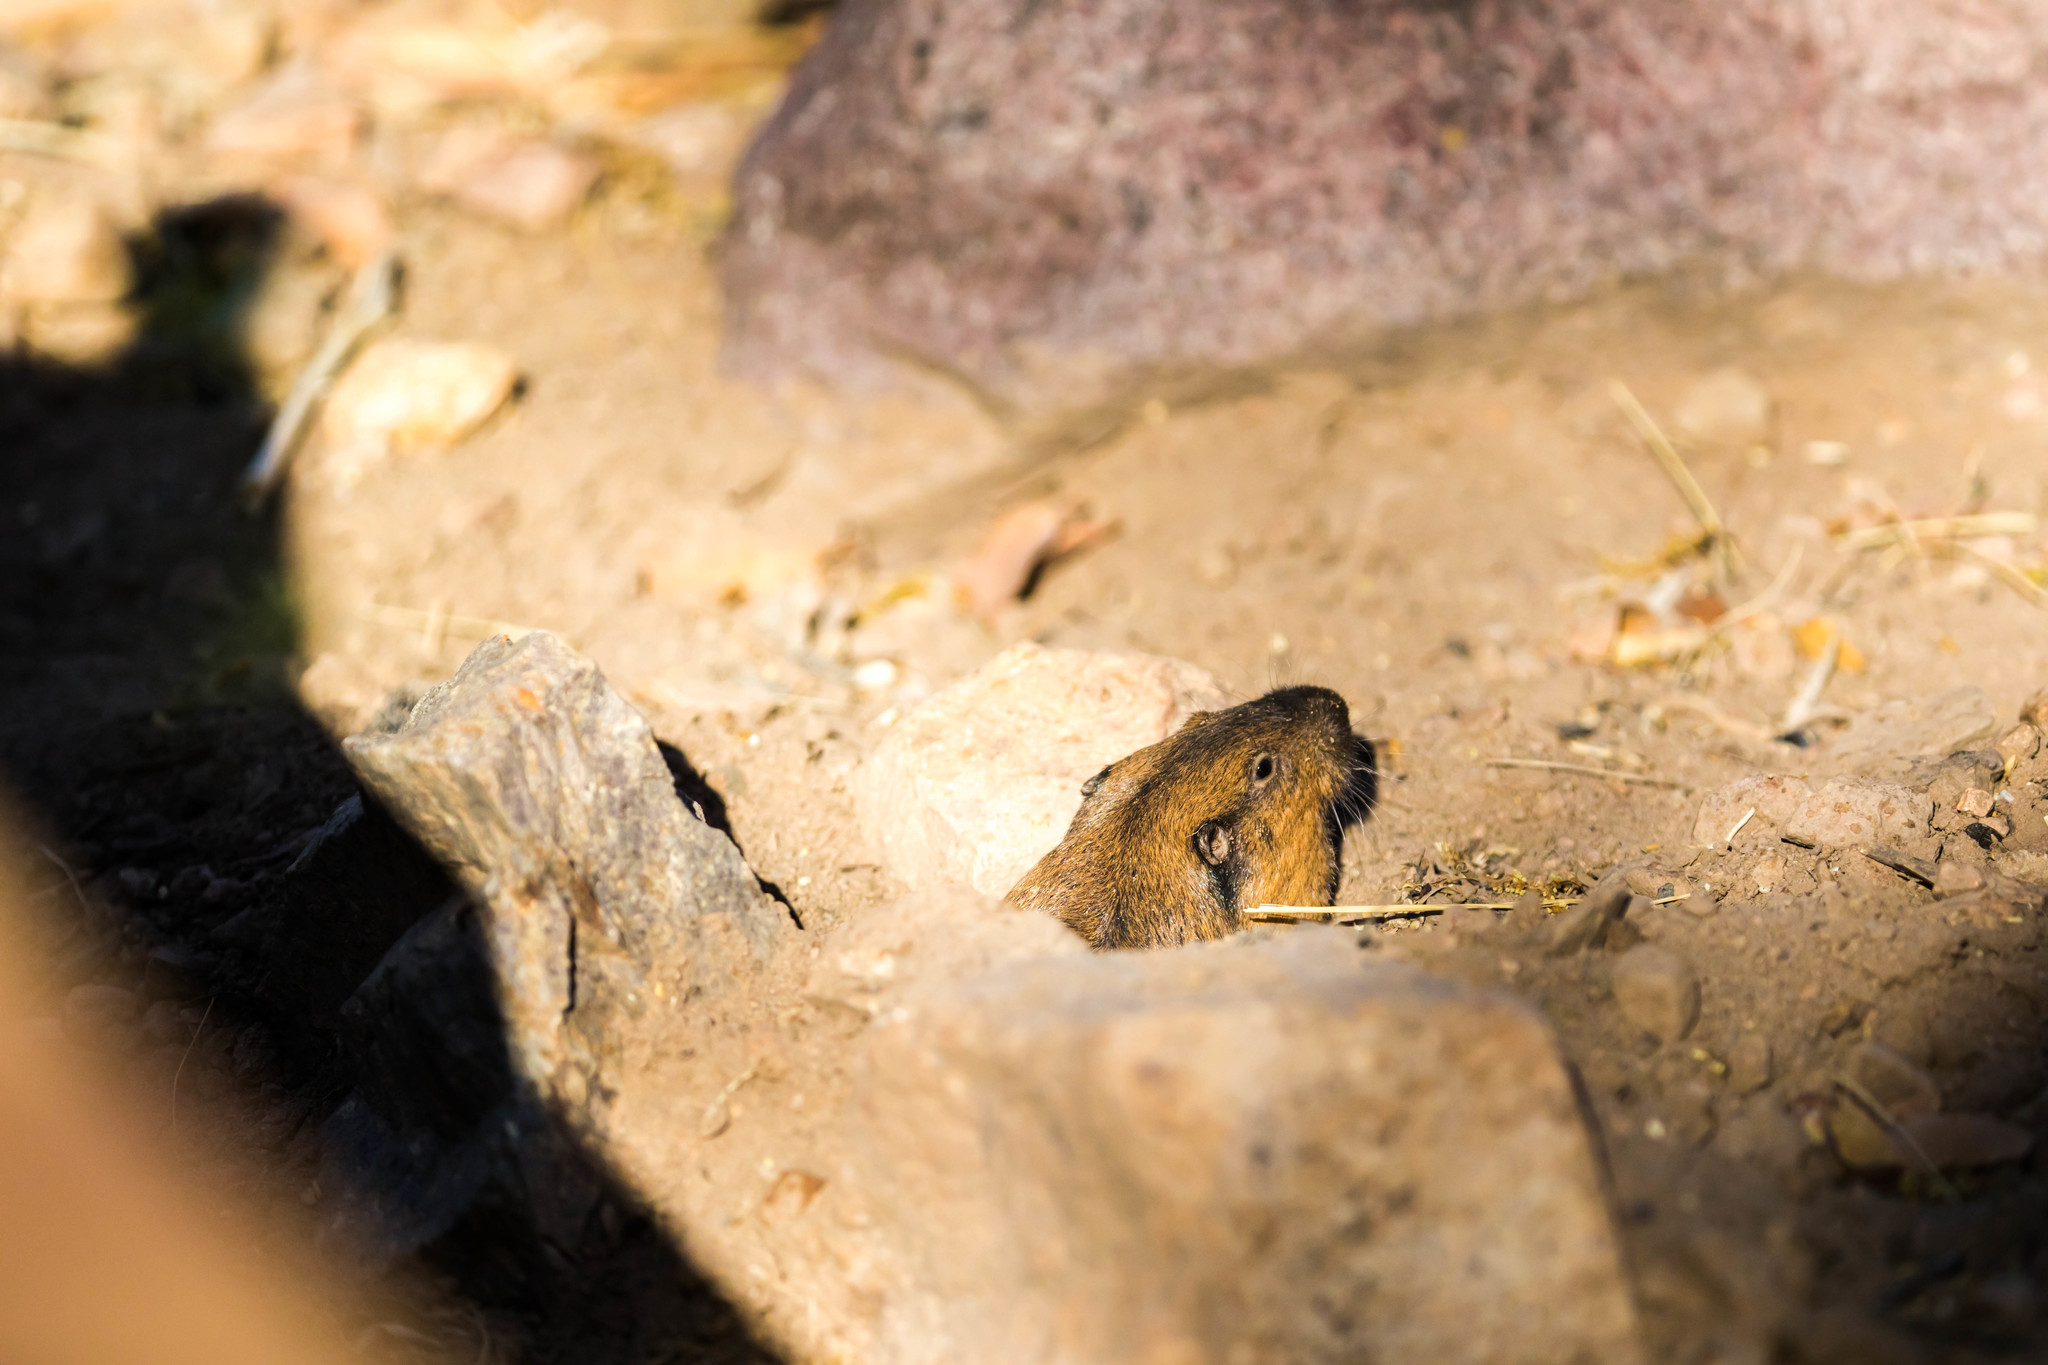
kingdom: Animalia
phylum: Chordata
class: Mammalia
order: Rodentia
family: Geomyidae
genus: Thomomys
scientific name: Thomomys bottae
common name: Botta's pocket gopher
